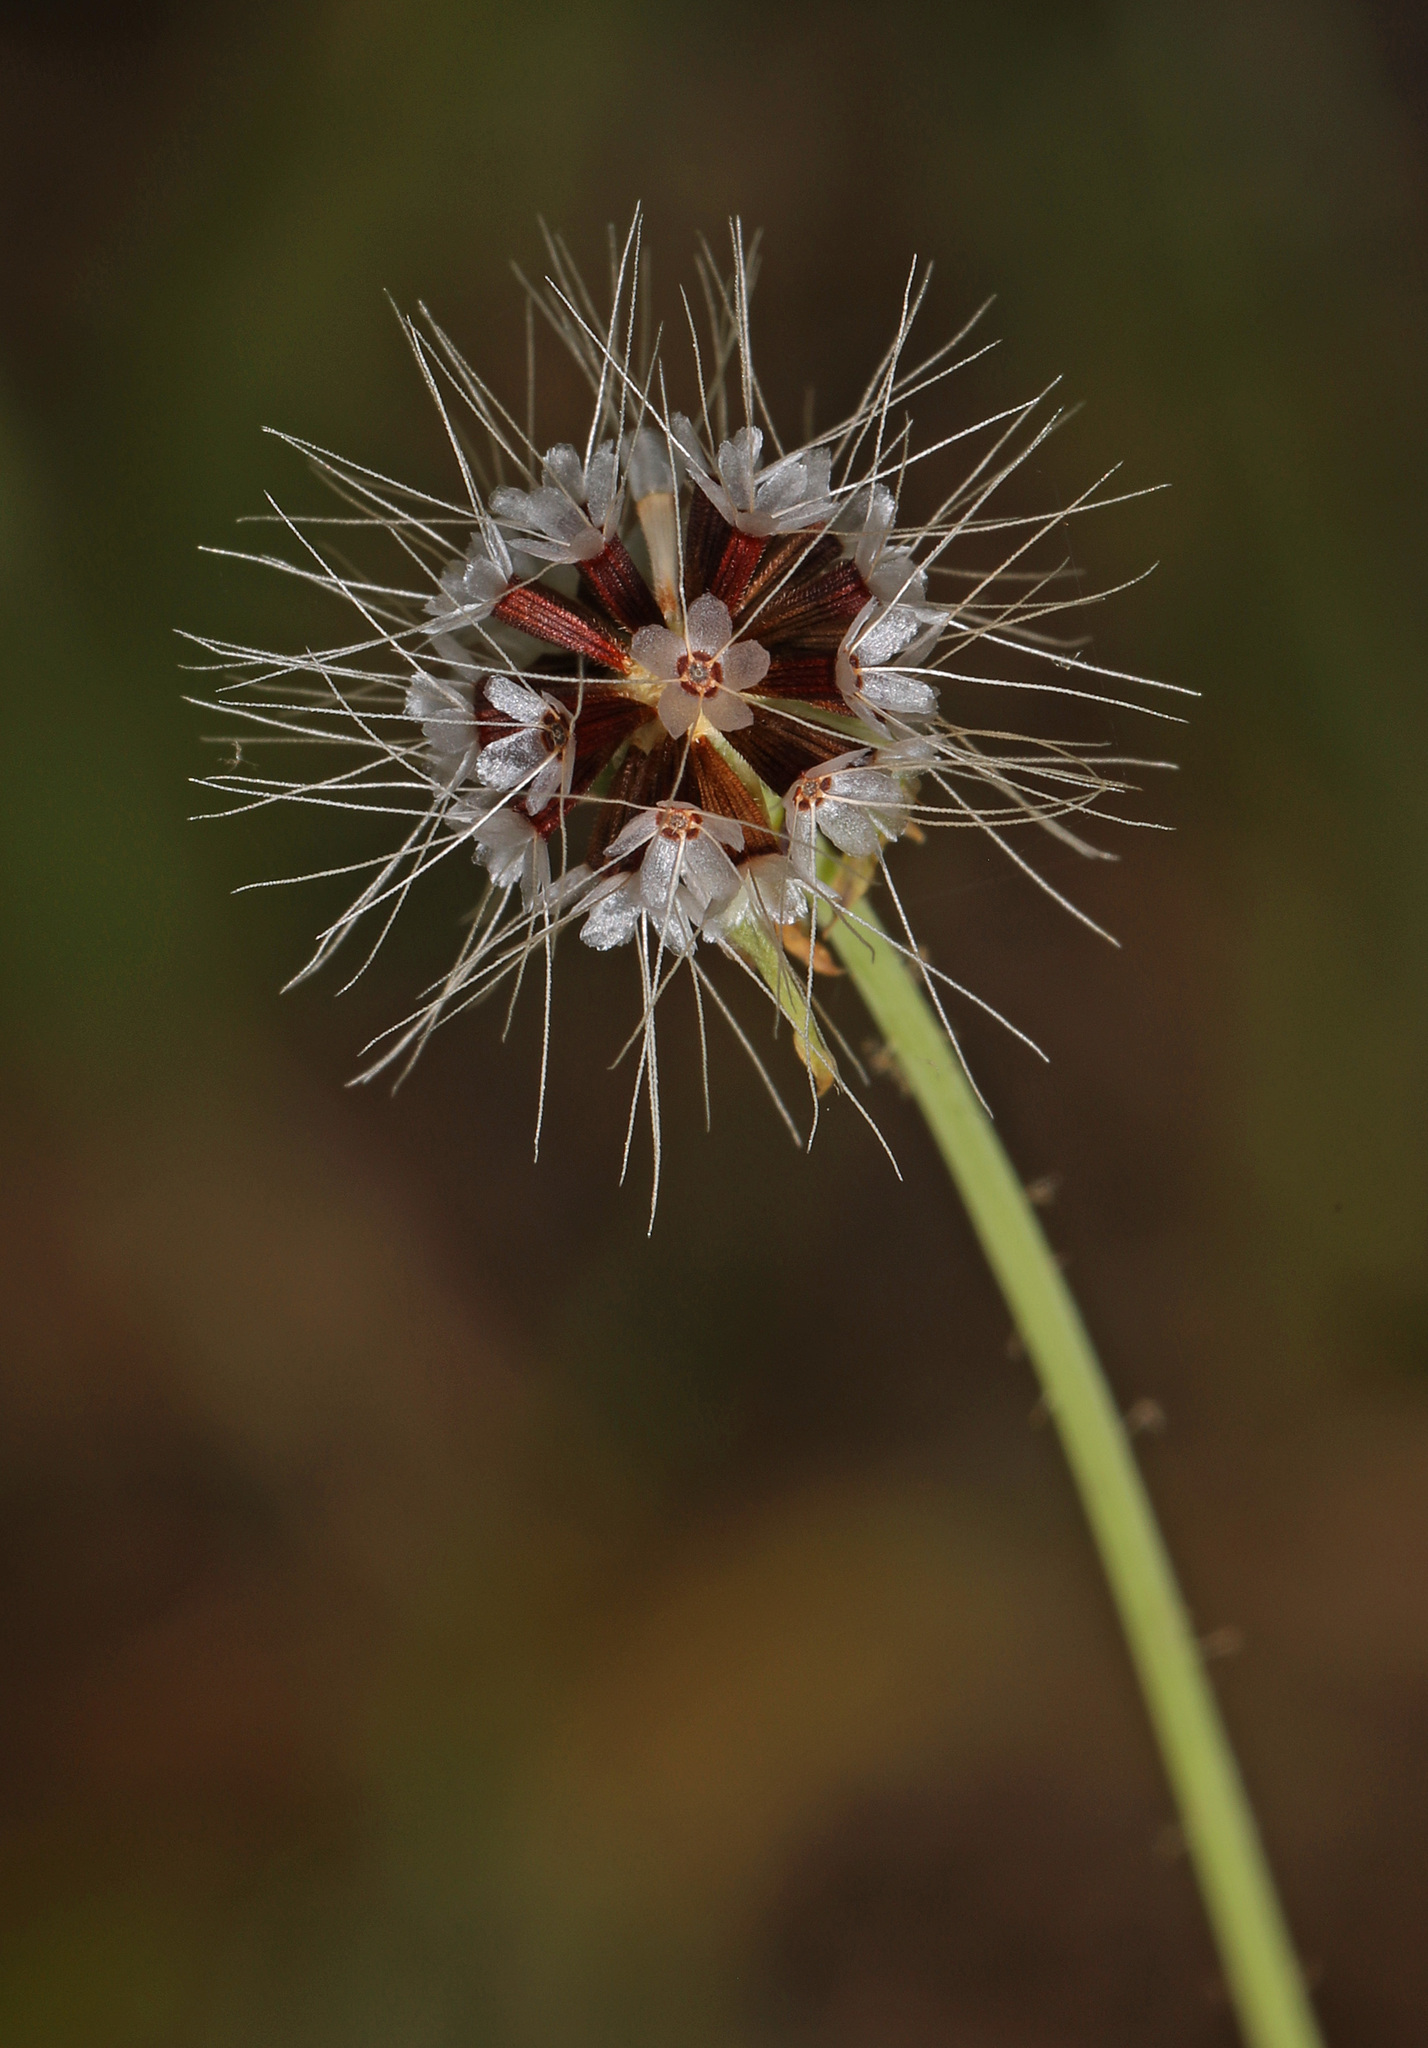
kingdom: Plantae
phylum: Tracheophyta
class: Magnoliopsida
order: Asterales
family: Asteraceae
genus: Krigia
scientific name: Krigia virginica
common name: Virginia dwarf-dandelion
